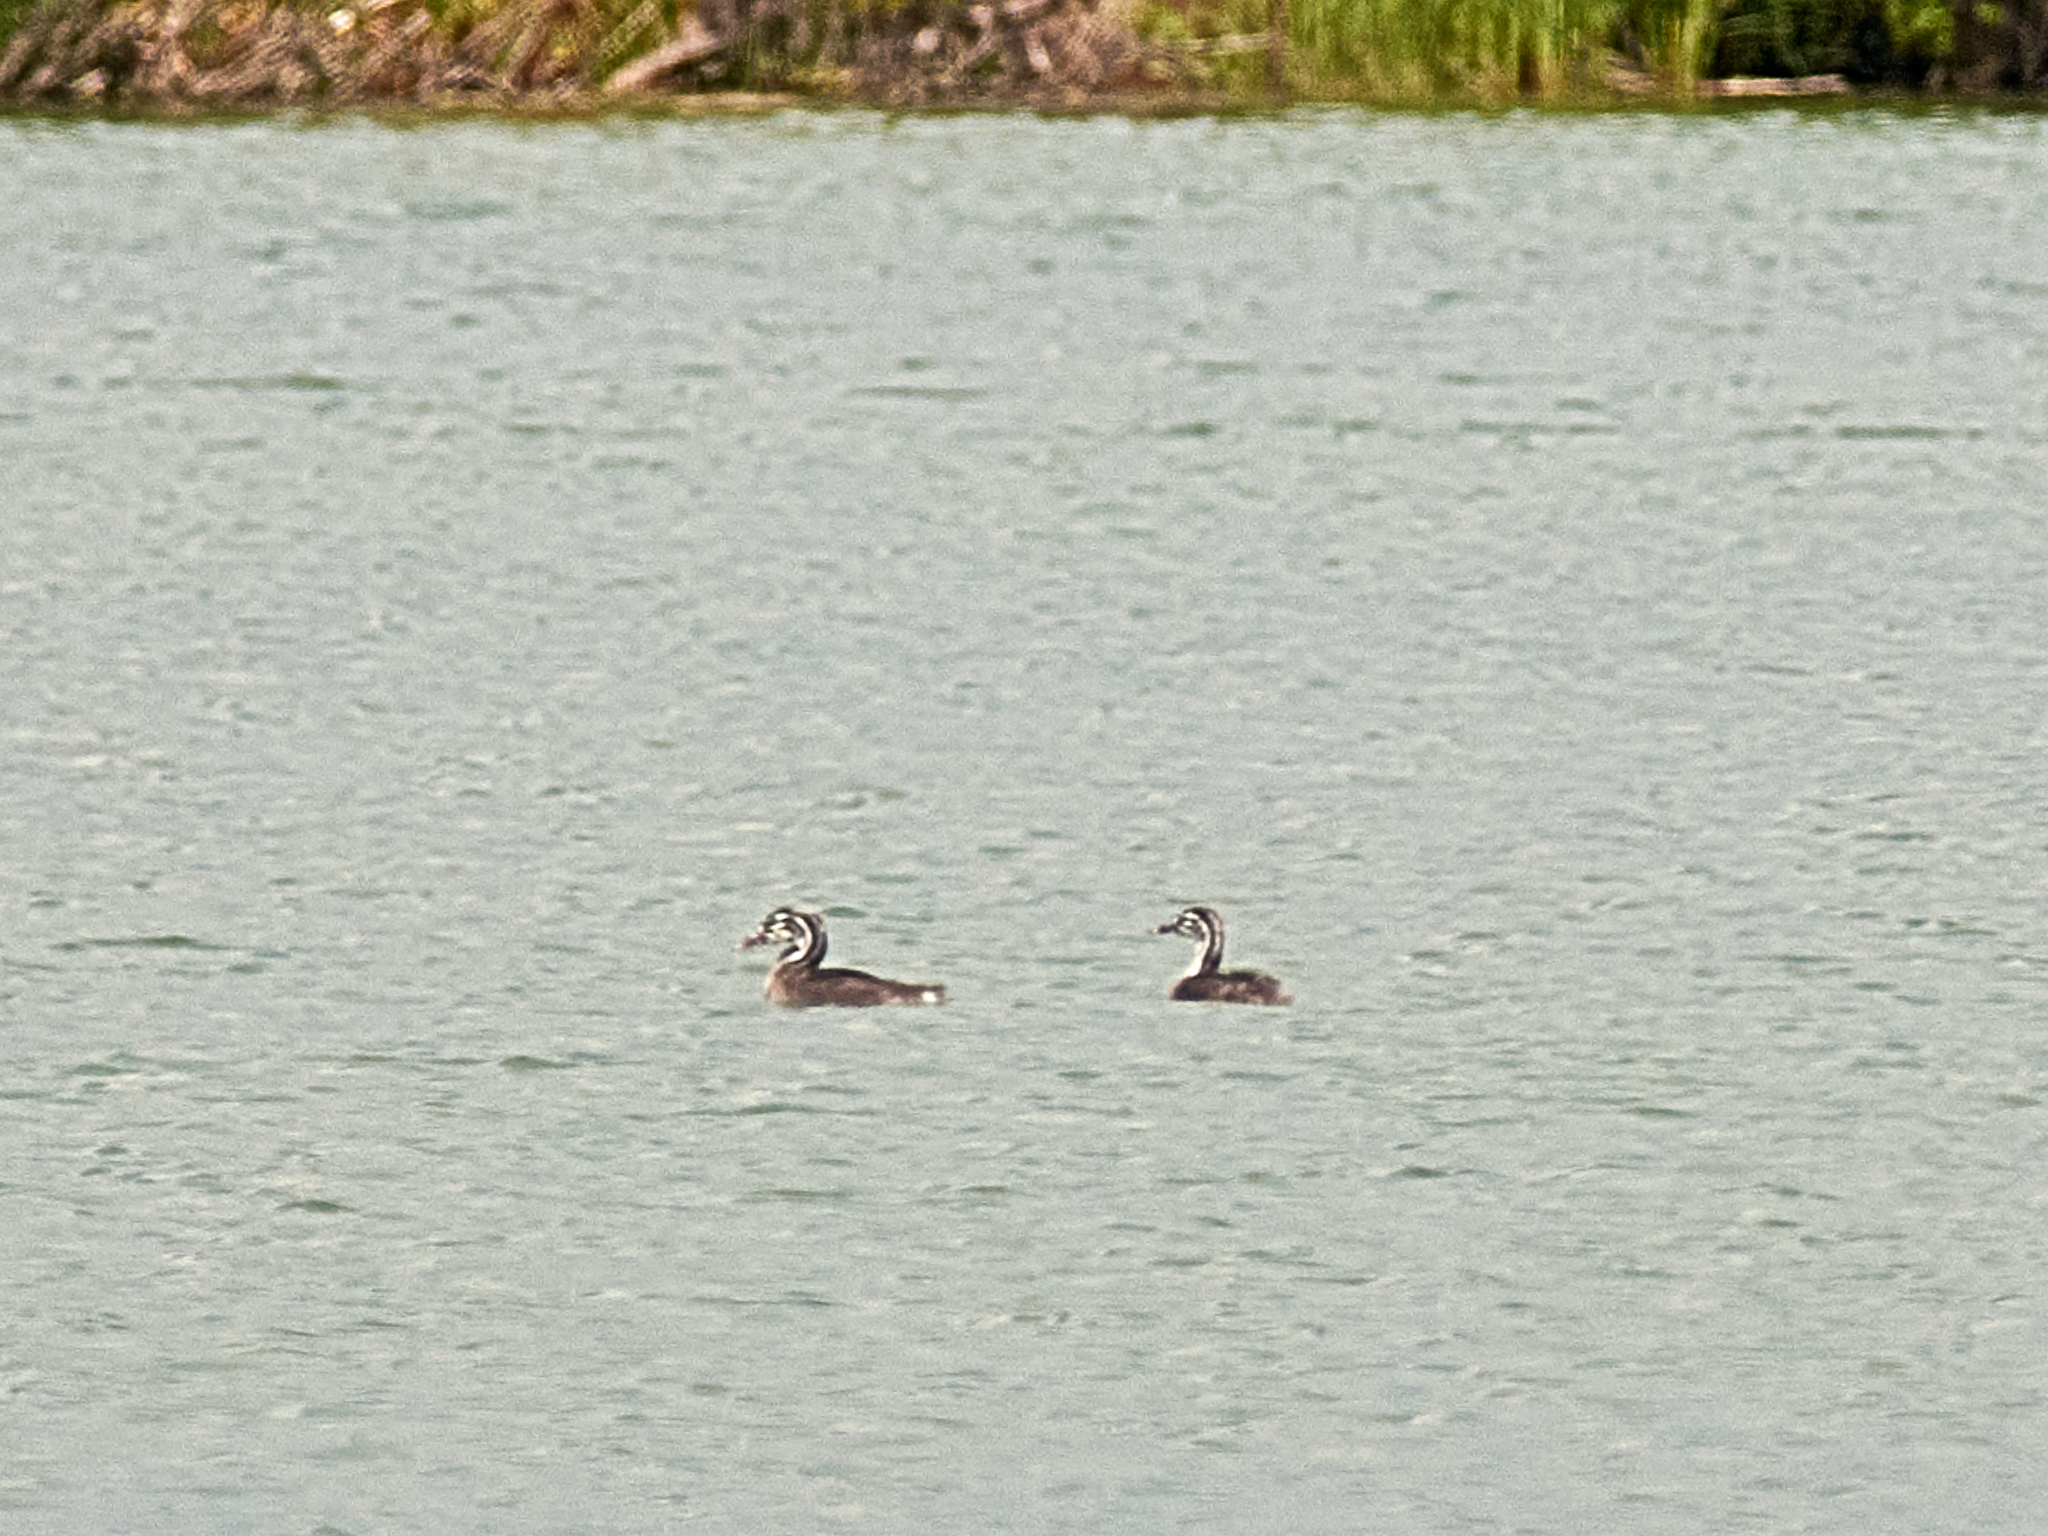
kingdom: Animalia
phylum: Chordata
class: Aves
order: Podicipediformes
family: Podicipedidae
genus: Podiceps
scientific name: Podiceps cristatus
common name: Great crested grebe
